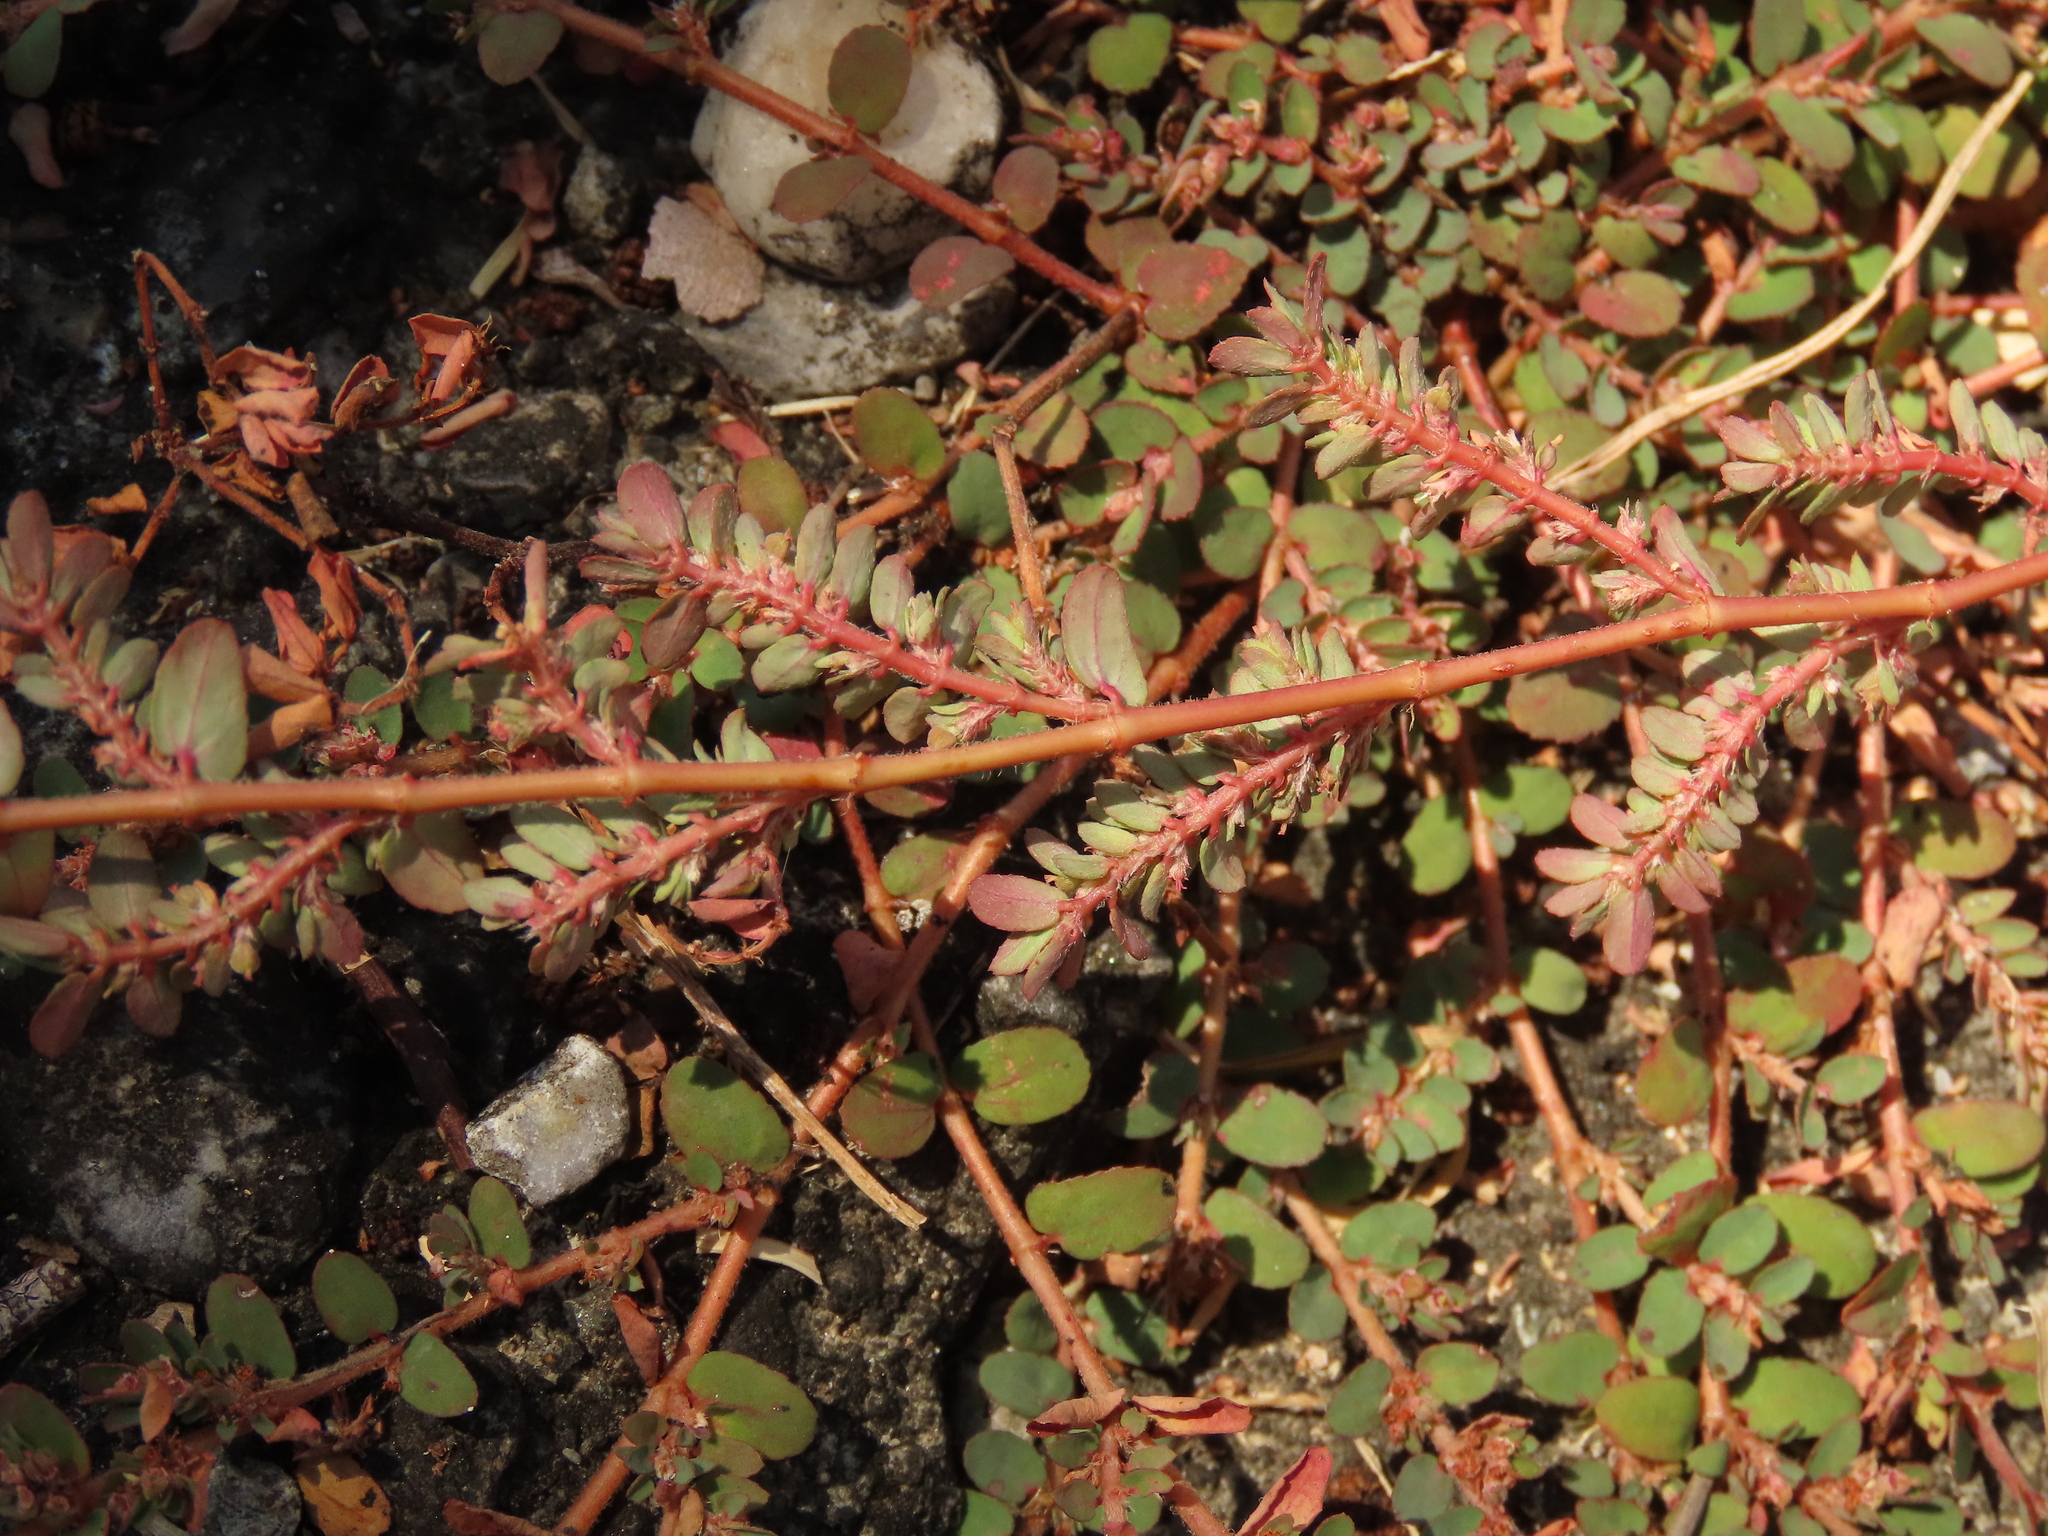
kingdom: Plantae
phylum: Tracheophyta
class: Magnoliopsida
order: Malpighiales
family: Euphorbiaceae
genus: Euphorbia
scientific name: Euphorbia thymifolia
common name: Gulf sandmat
